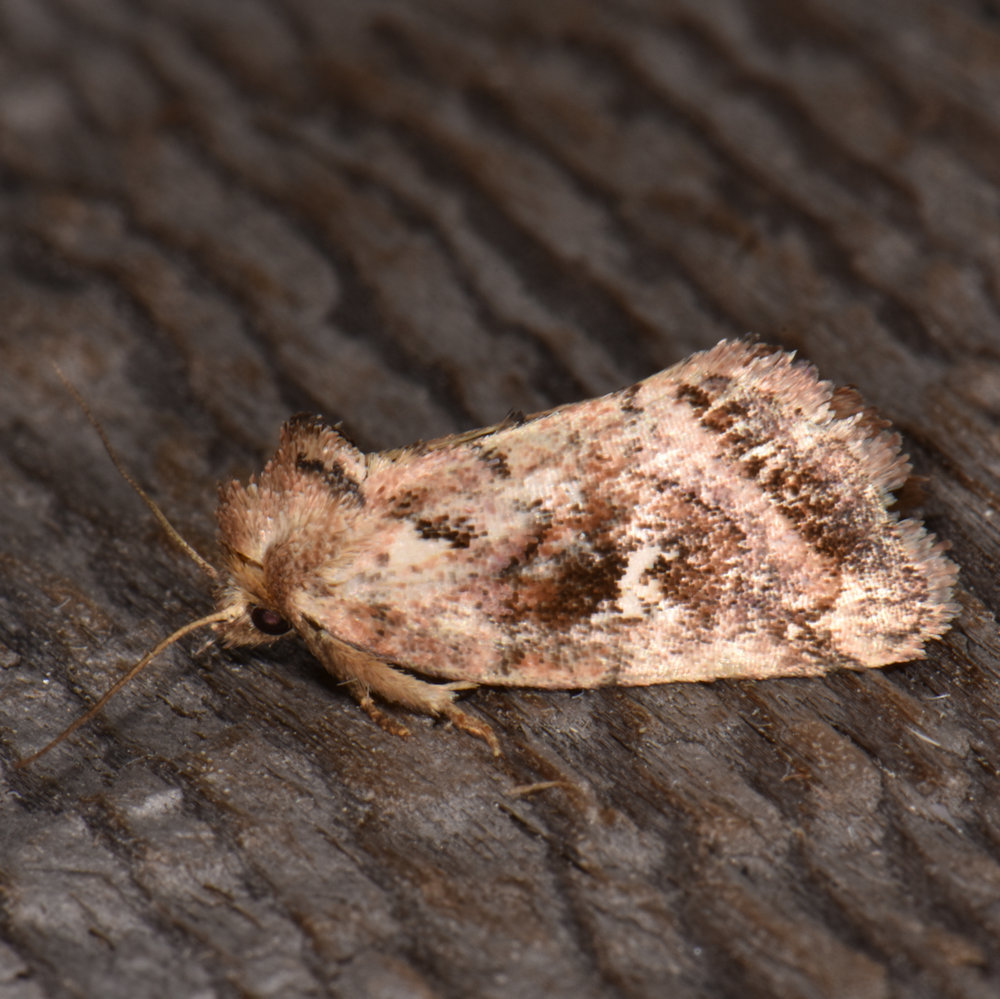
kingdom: Animalia
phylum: Arthropoda
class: Insecta
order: Lepidoptera
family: Noctuidae
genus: Photedes
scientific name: Photedes includens
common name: Included cordgrass borer moth
